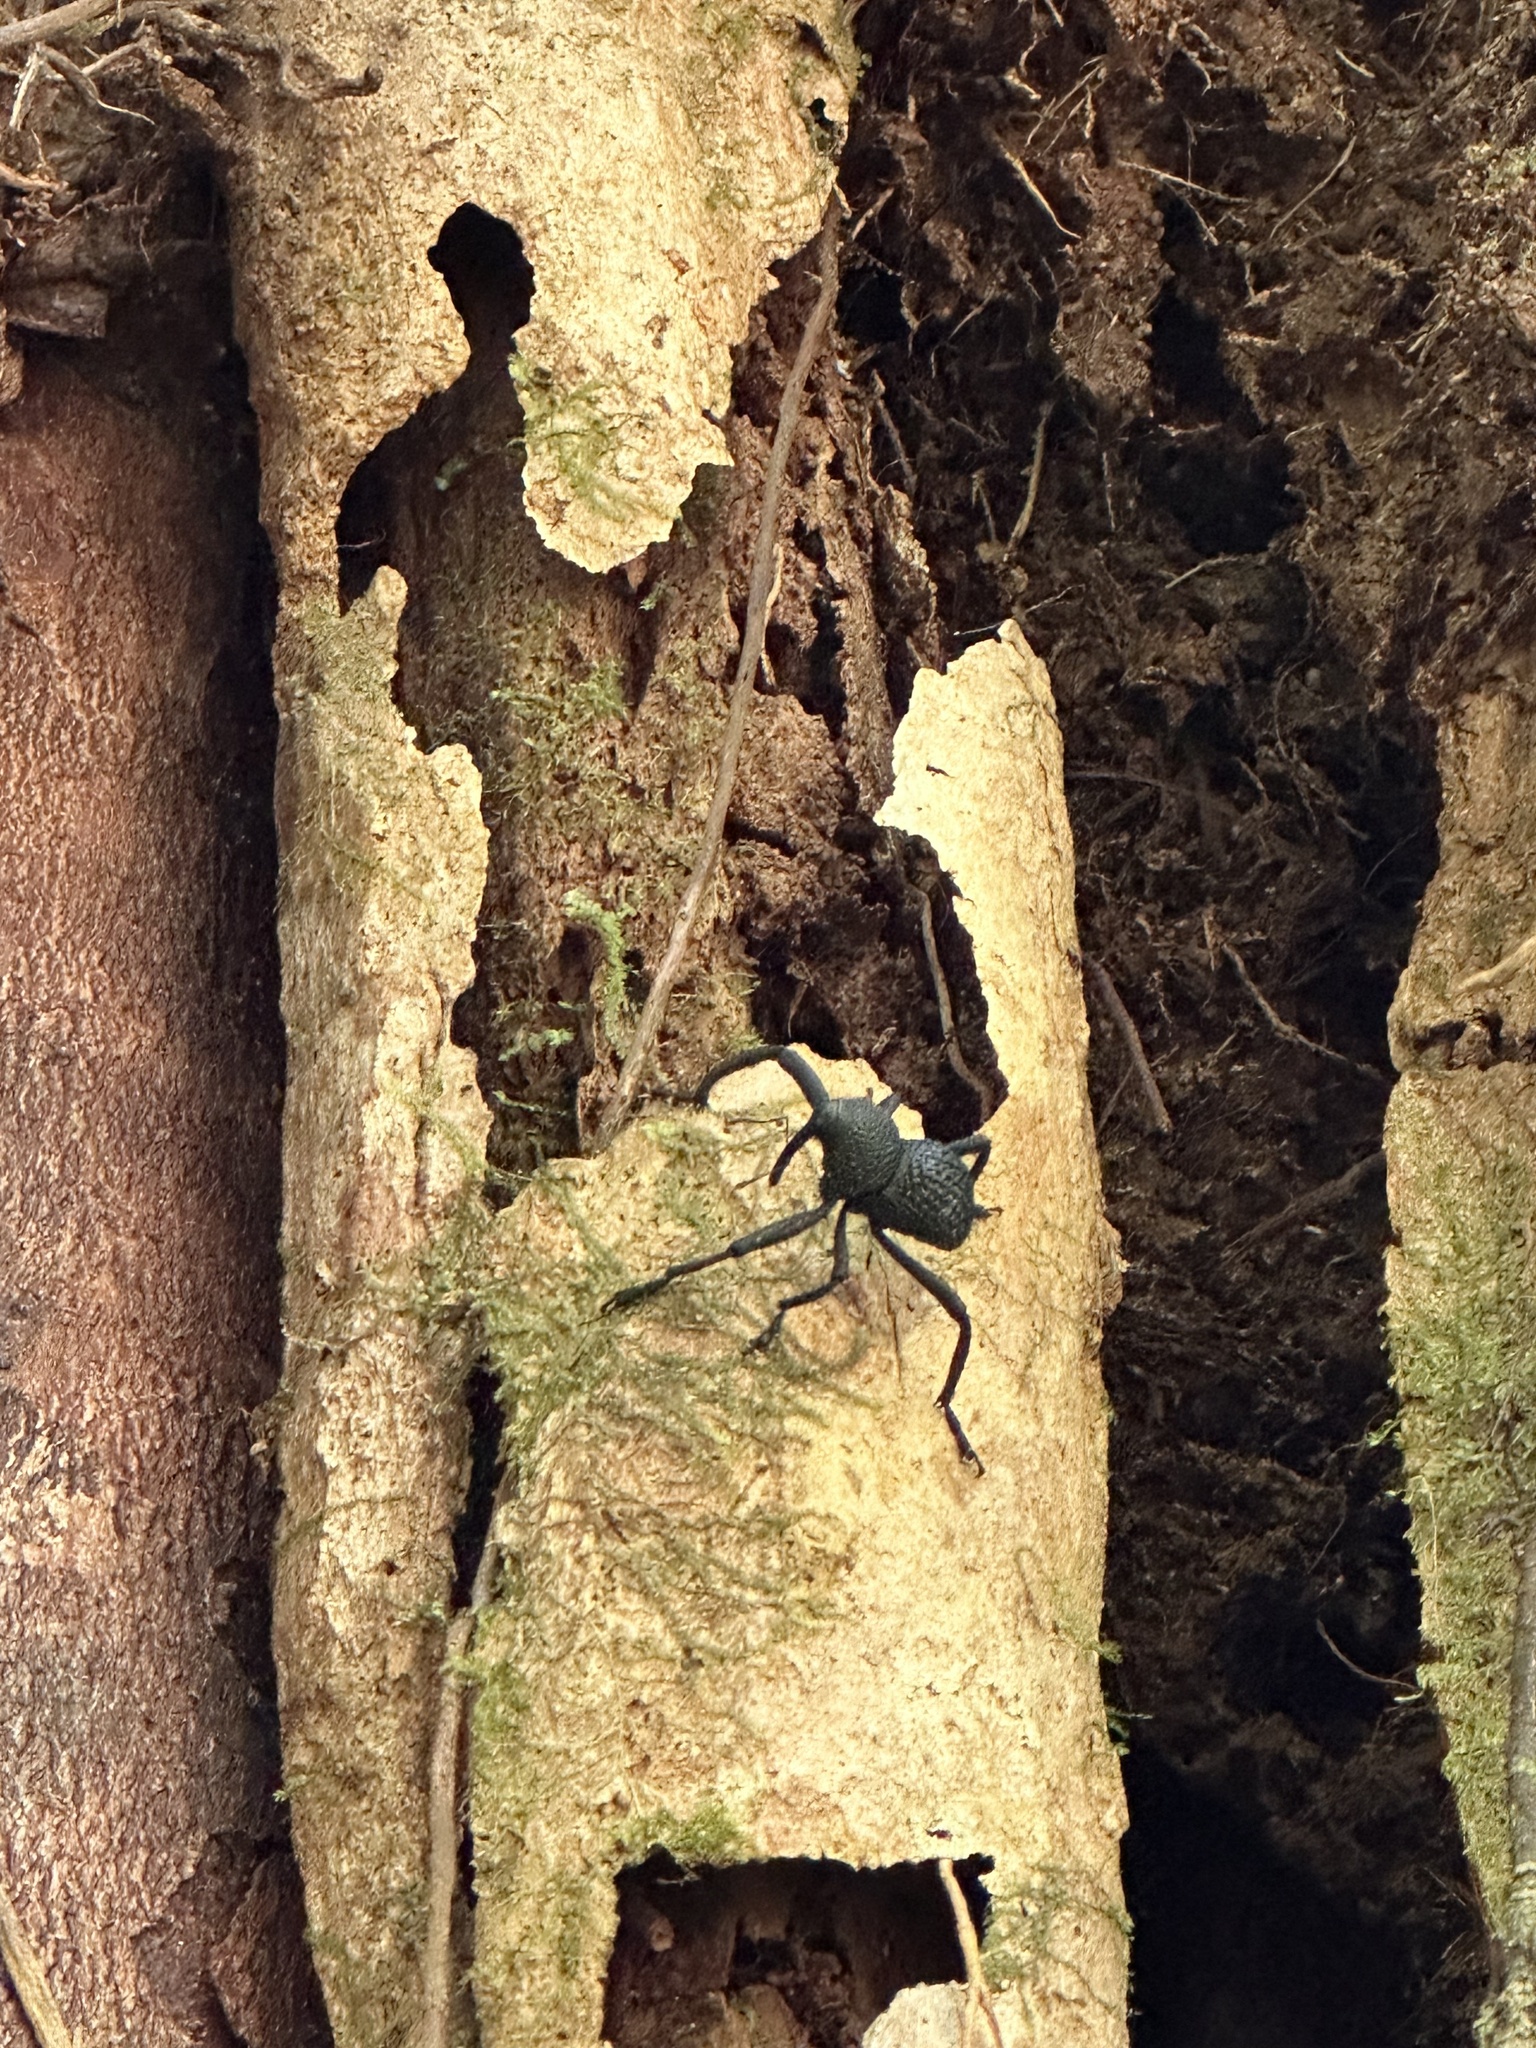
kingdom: Animalia
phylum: Arthropoda
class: Insecta
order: Coleoptera
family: Curculionidae
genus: Rhyephenes
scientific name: Rhyephenes maillei
